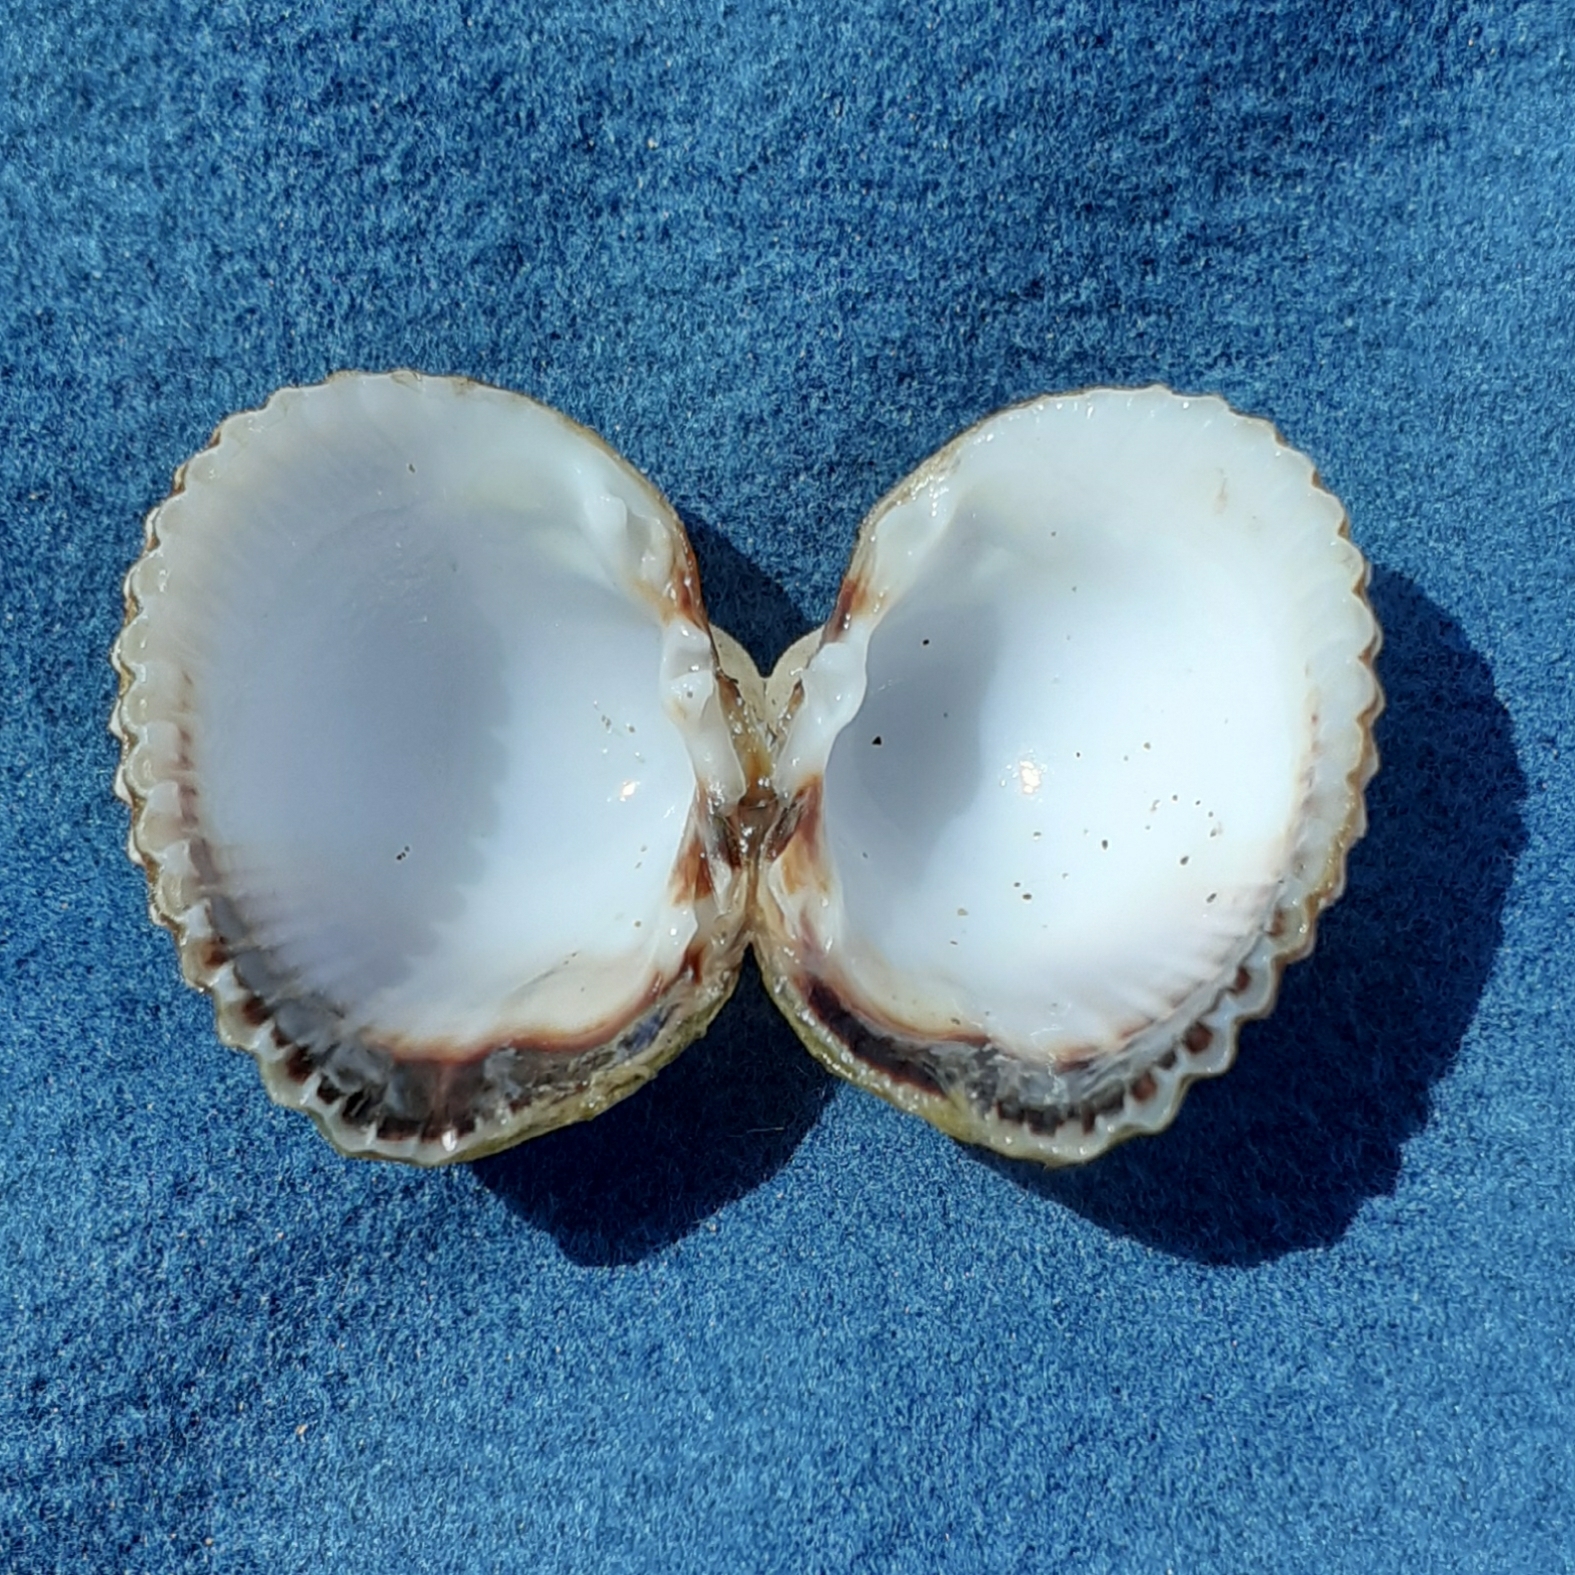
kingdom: Animalia
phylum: Mollusca
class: Bivalvia
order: Cardiida
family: Cardiidae
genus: Cerastoderma
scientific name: Cerastoderma glaucum
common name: Lagoon cockle
